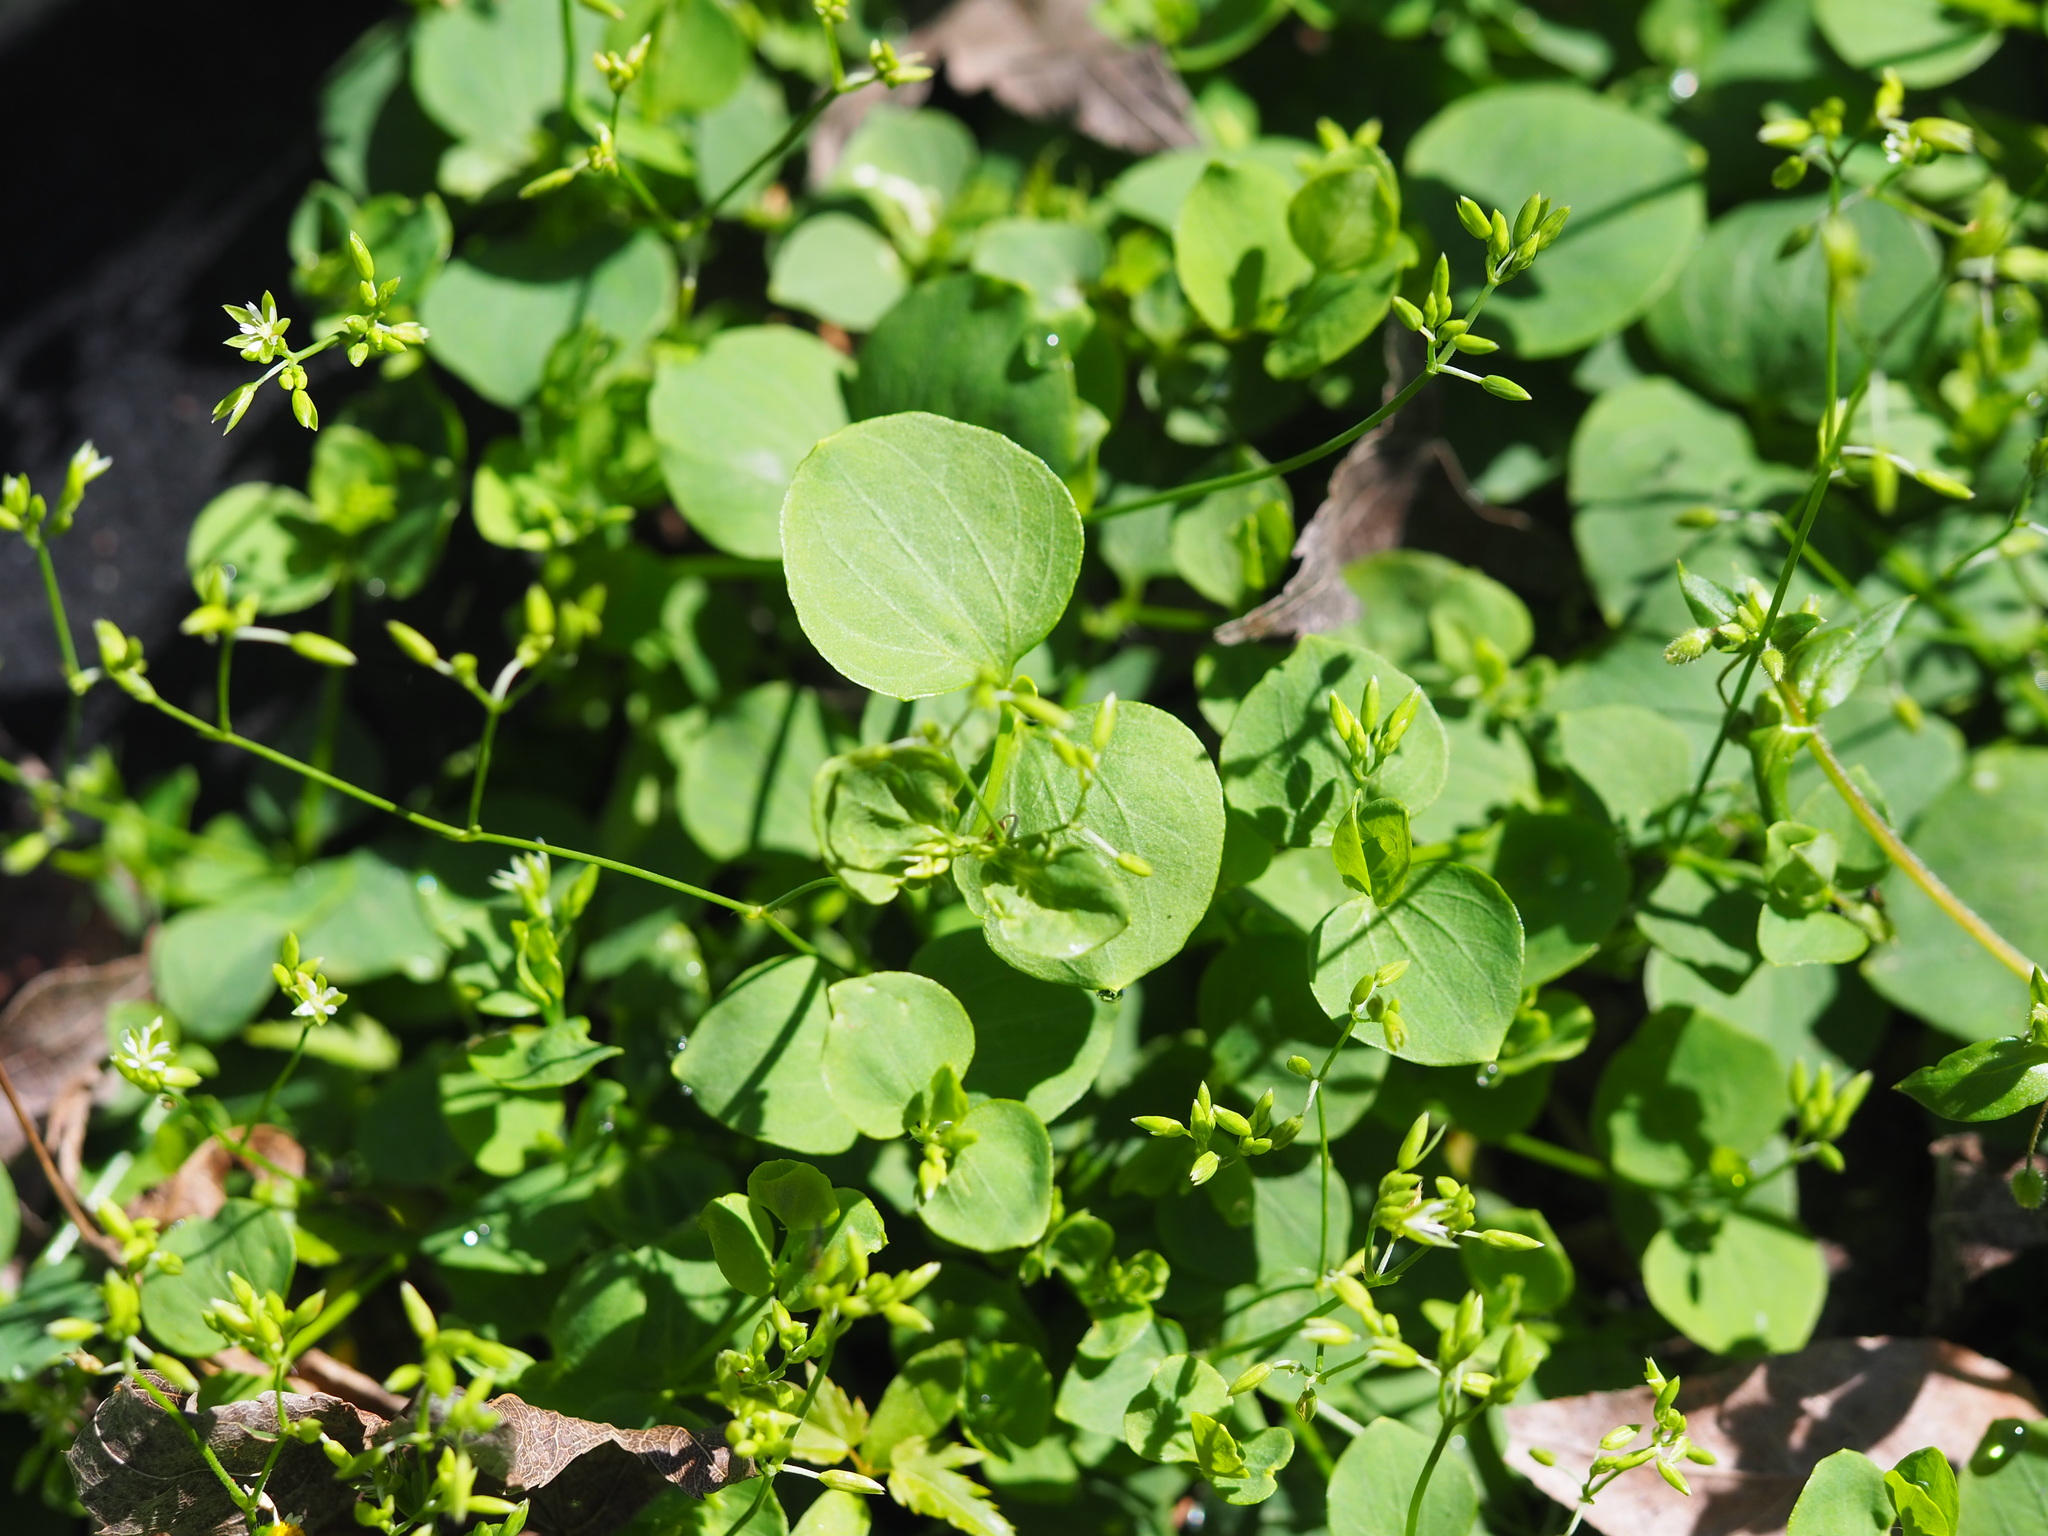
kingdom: Plantae
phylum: Tracheophyta
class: Magnoliopsida
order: Caryophyllales
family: Caryophyllaceae
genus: Drymaria
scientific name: Drymaria cordata
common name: Whitesnow
